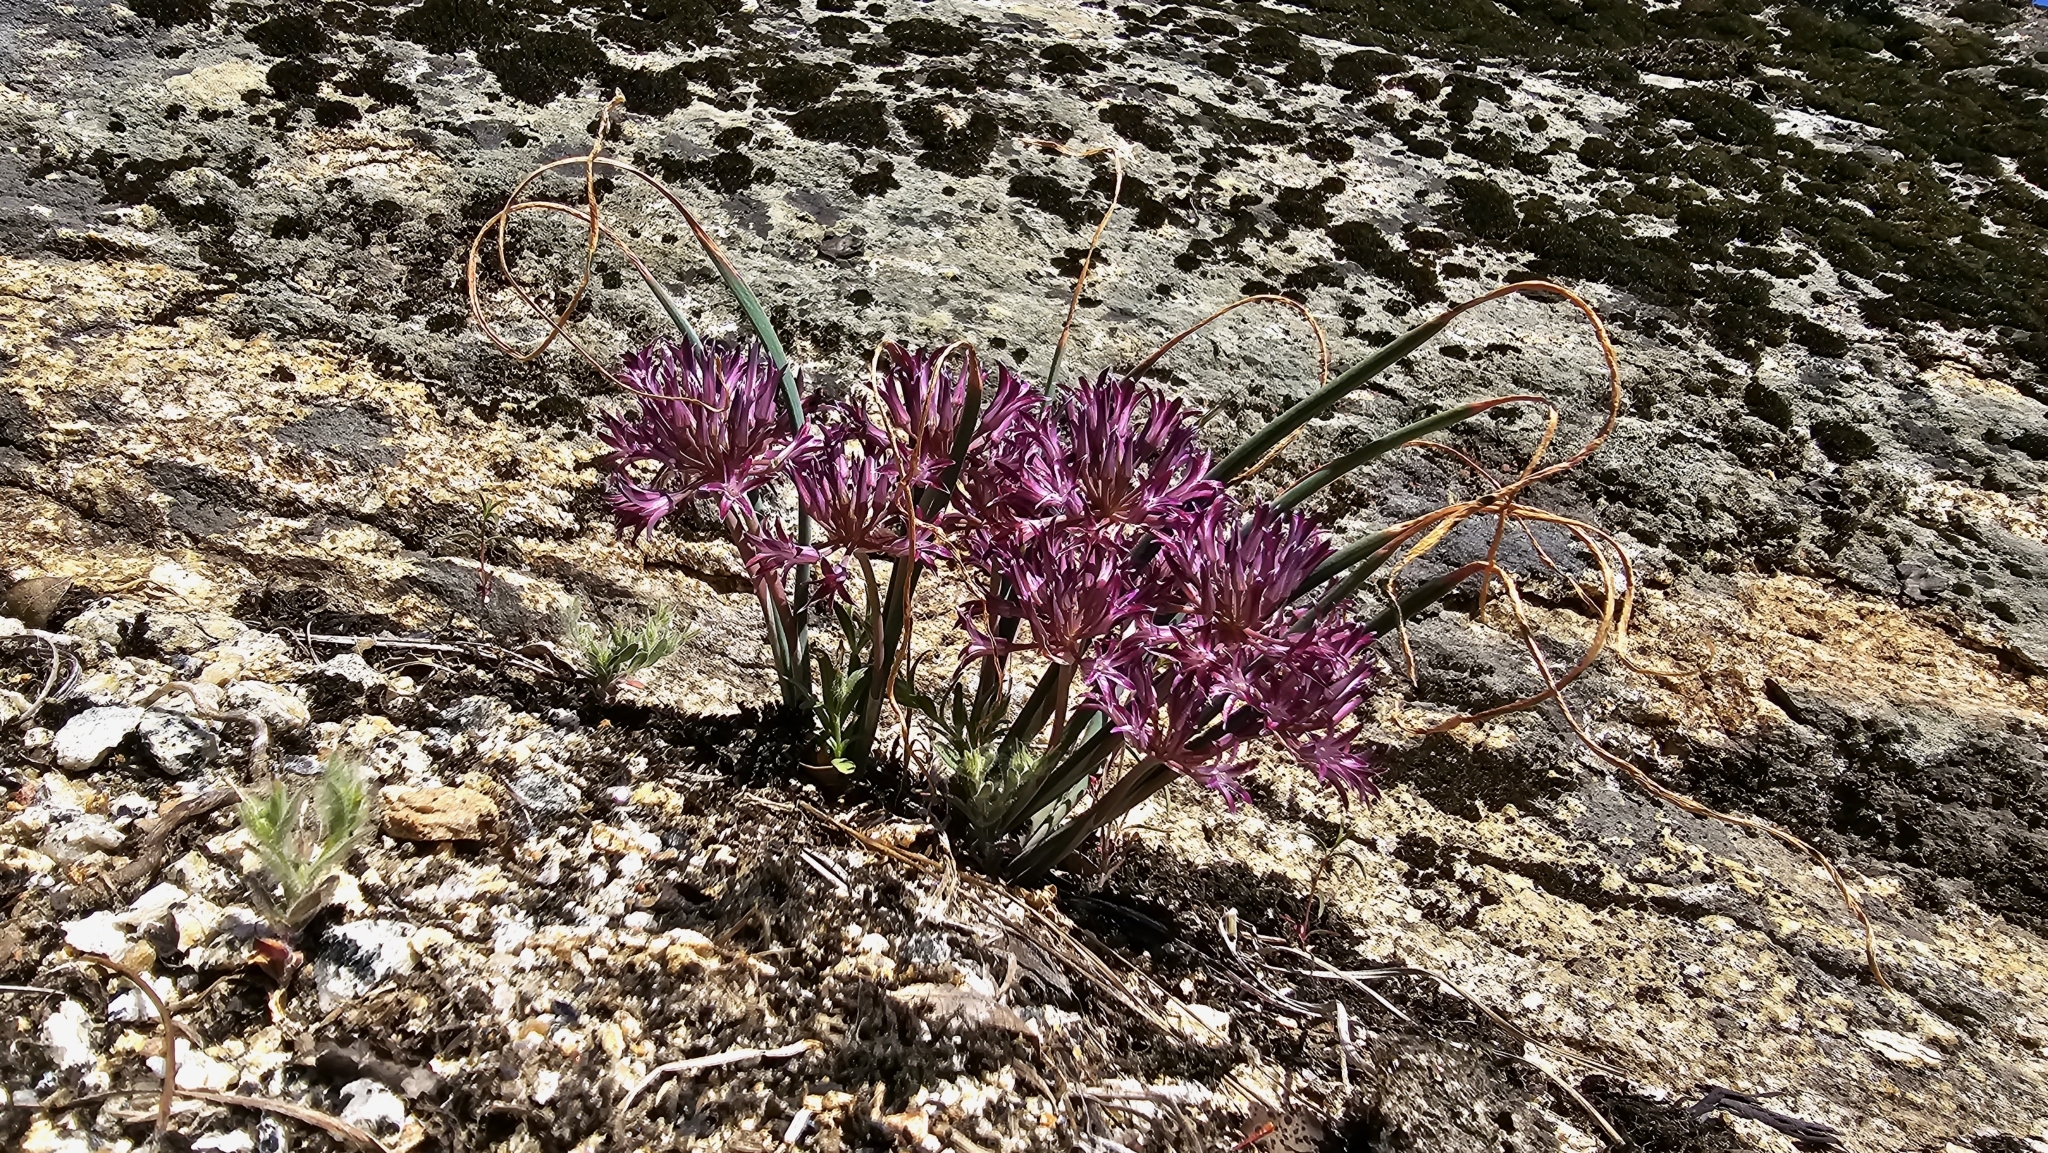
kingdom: Plantae
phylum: Tracheophyta
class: Liliopsida
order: Asparagales
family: Amaryllidaceae
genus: Allium
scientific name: Allium abramsii
